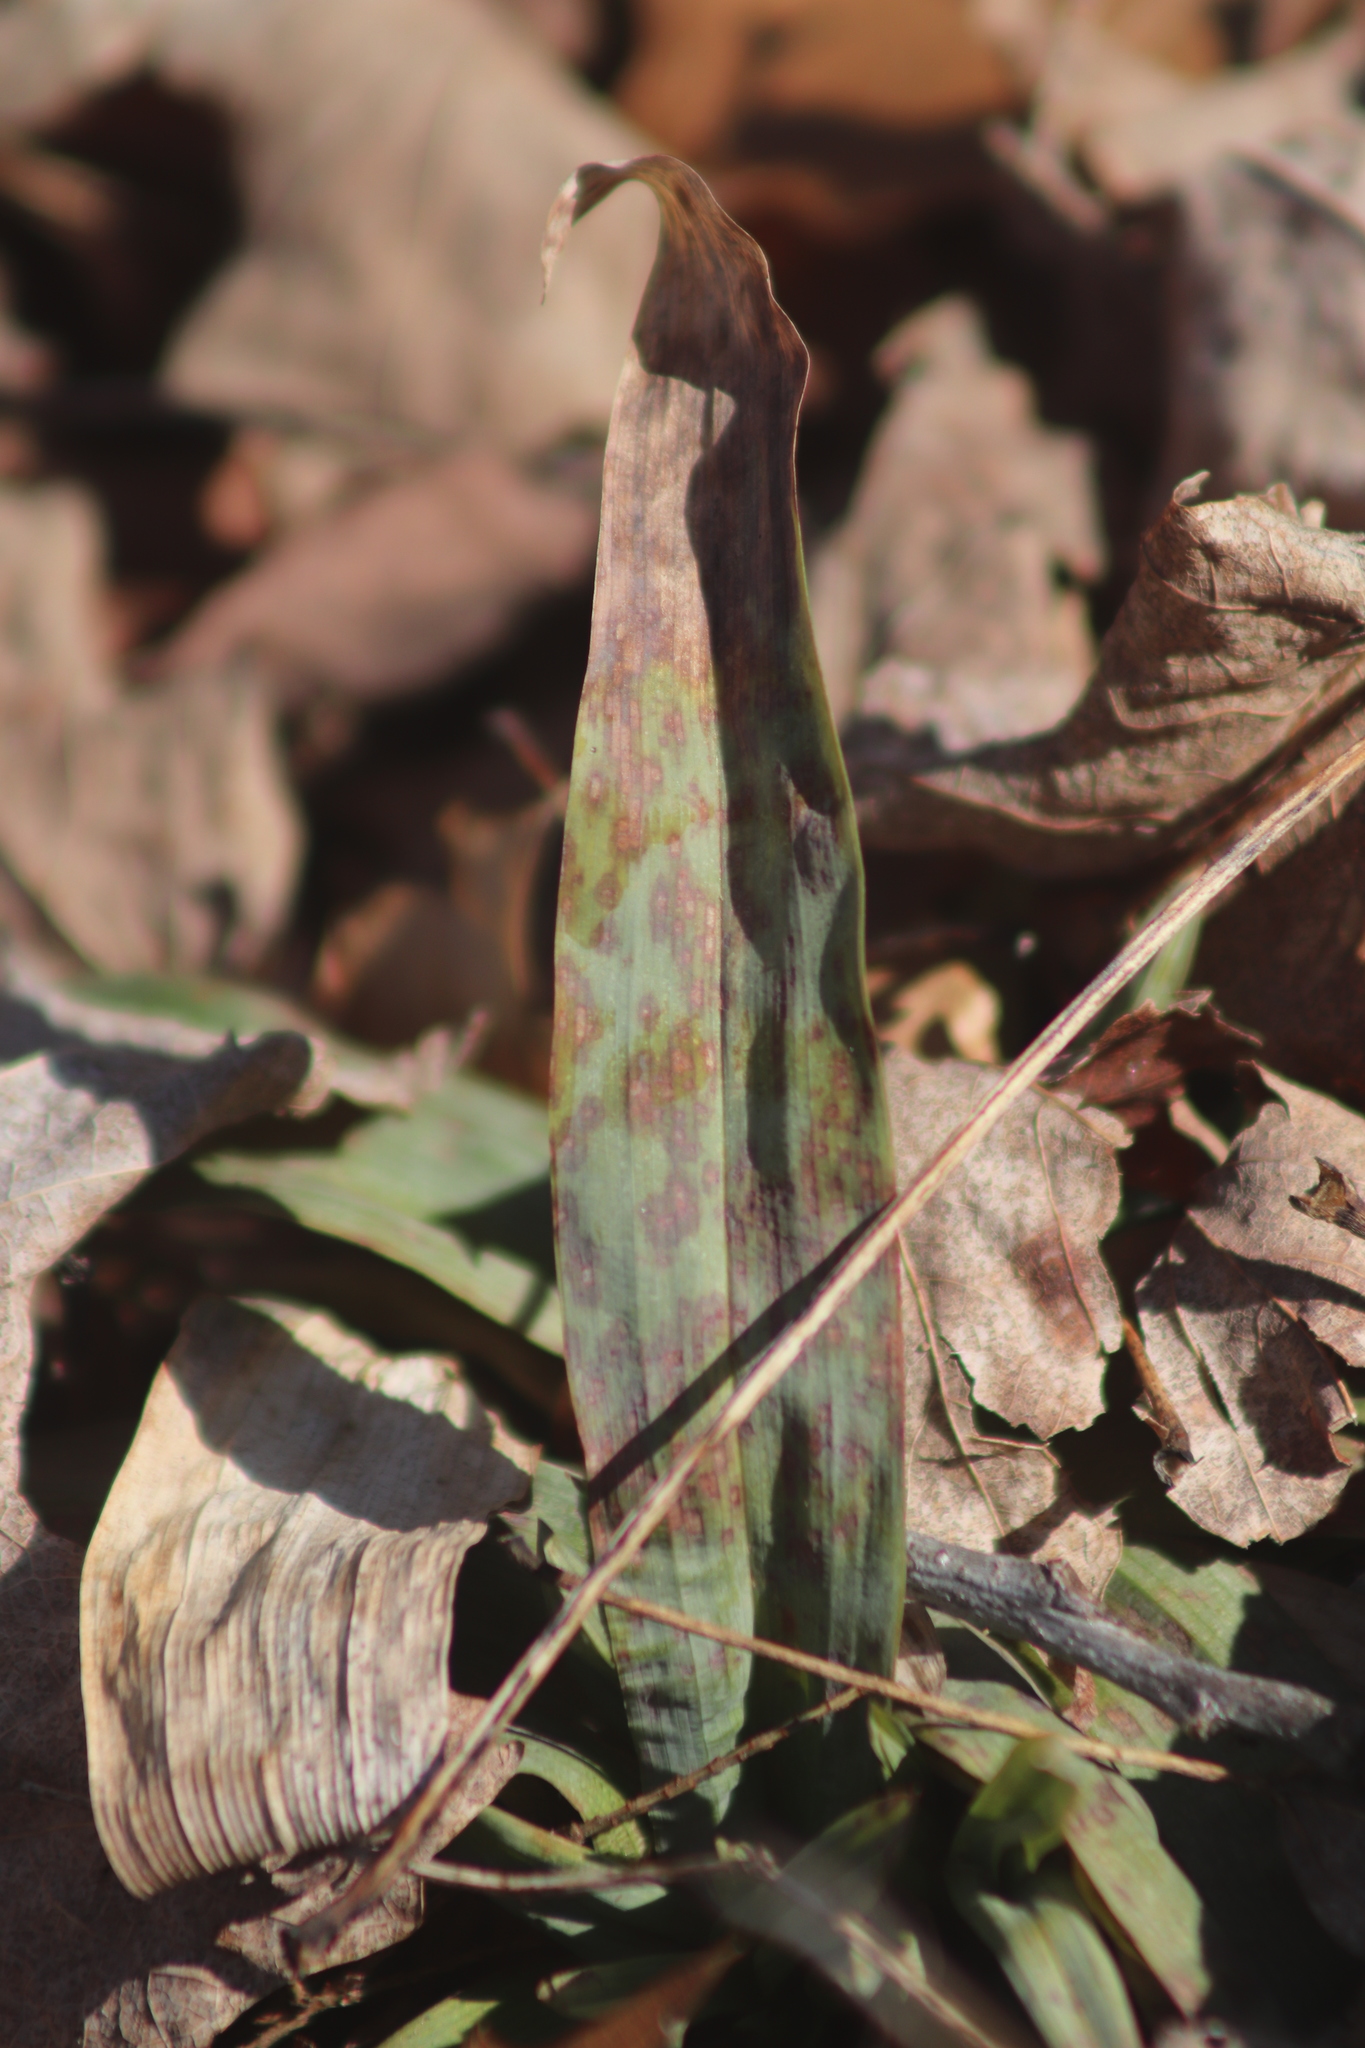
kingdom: Plantae
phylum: Tracheophyta
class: Liliopsida
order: Poales
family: Cyperaceae
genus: Carex
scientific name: Carex platyphylla
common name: Broad-leaved sedge
